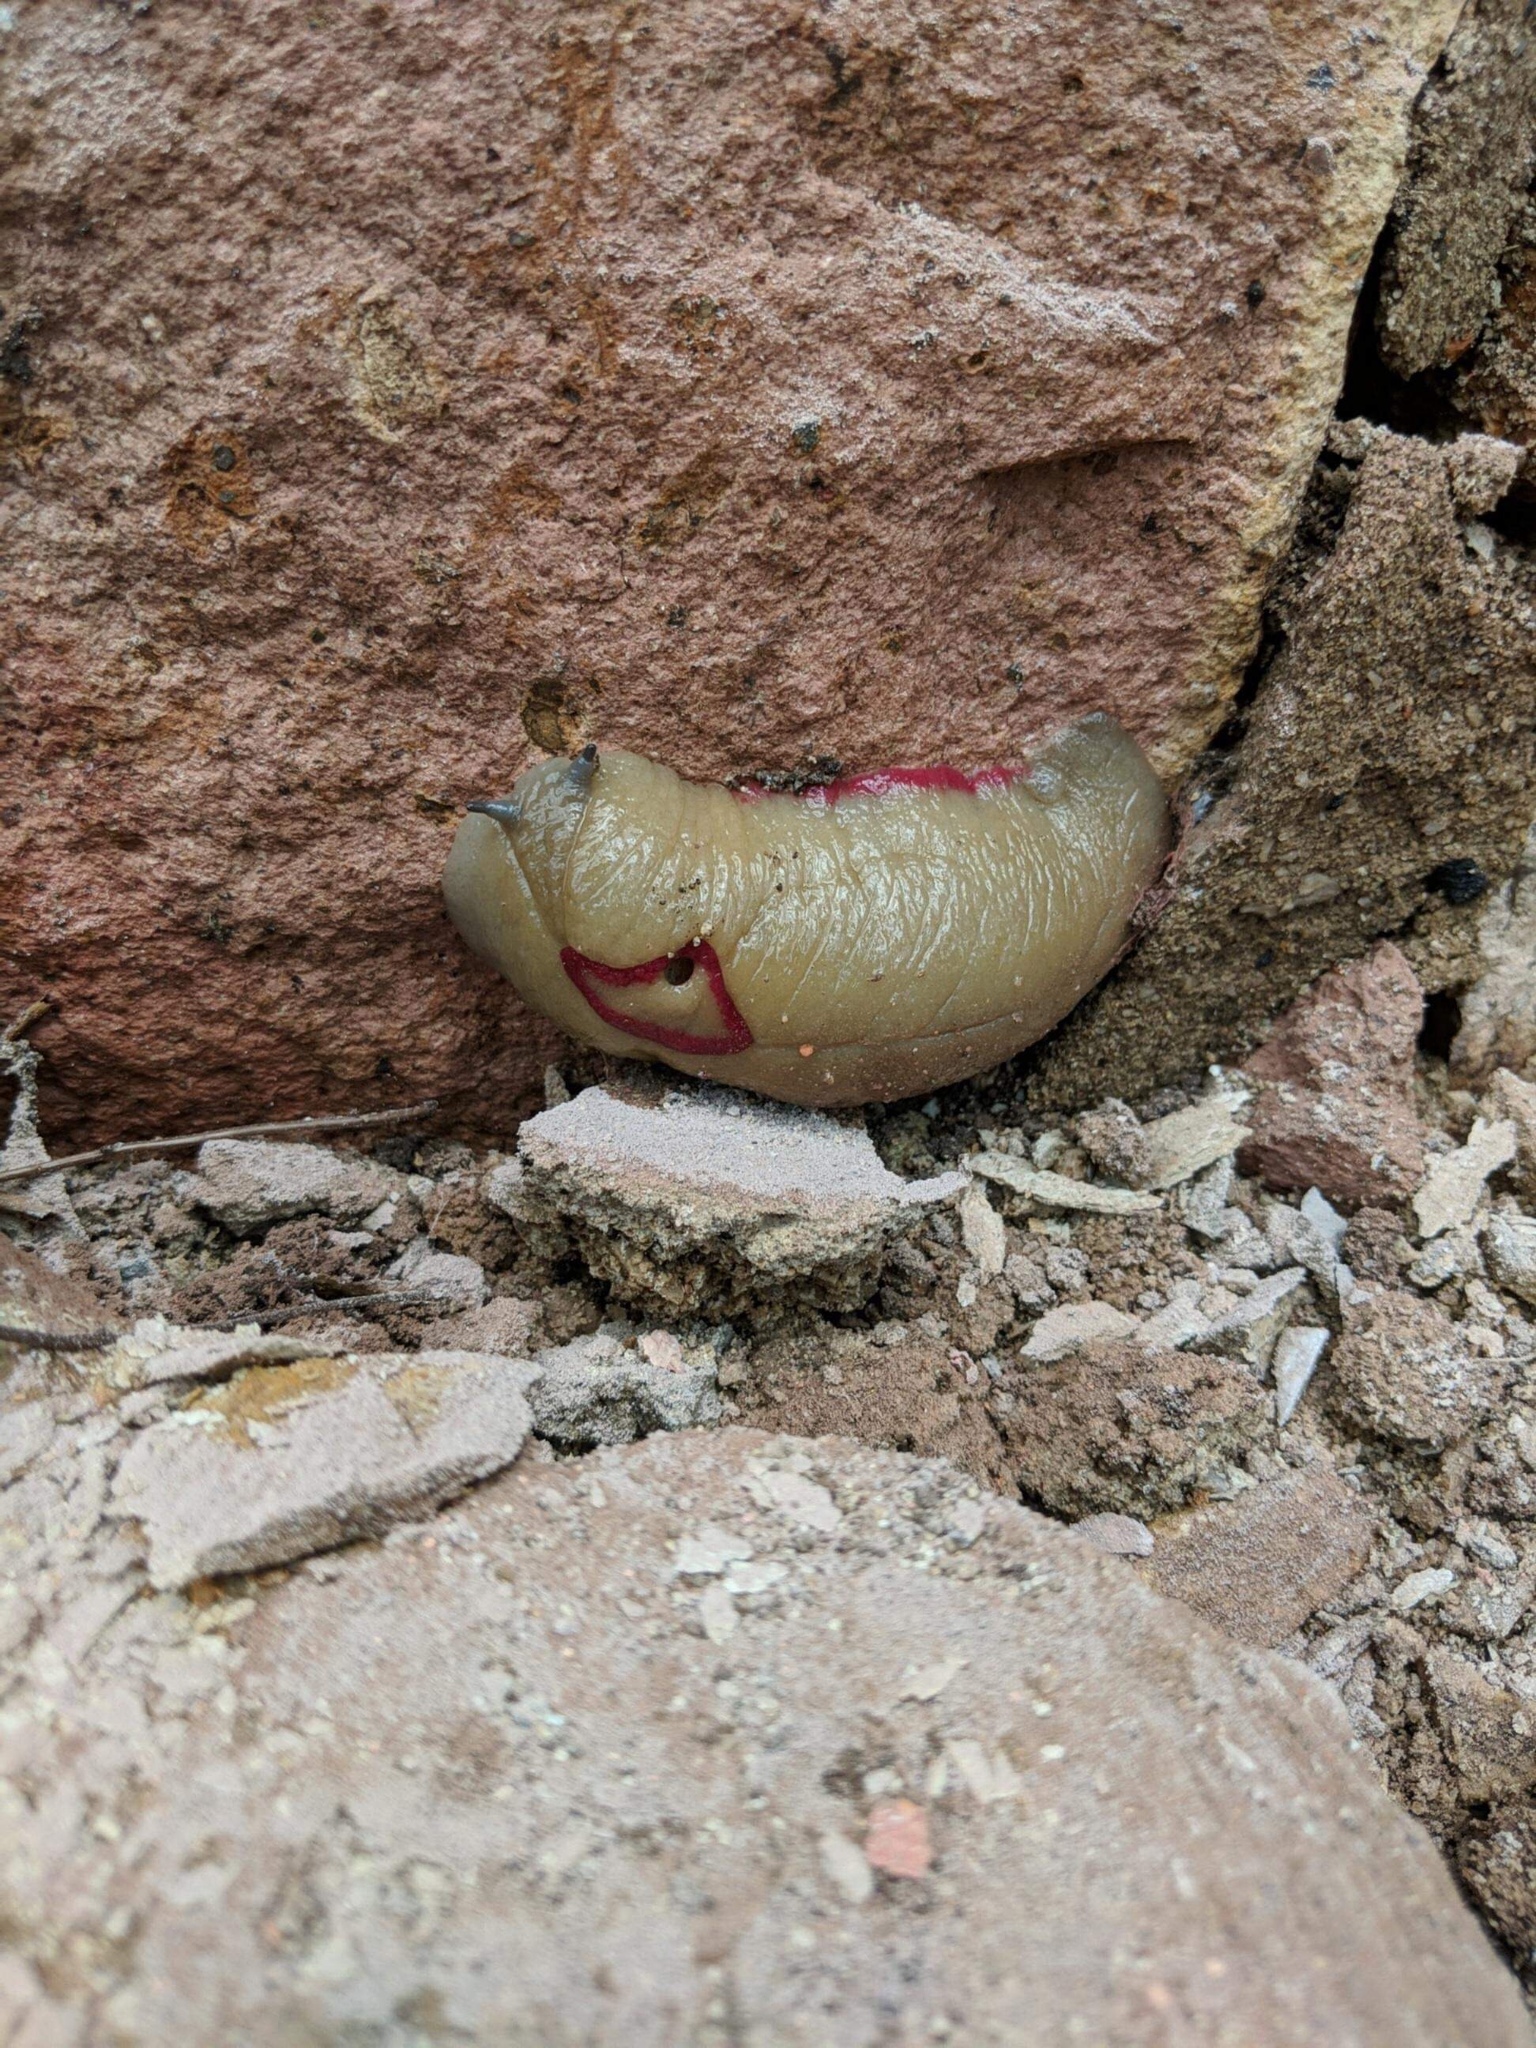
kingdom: Animalia
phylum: Mollusca
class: Gastropoda
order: Stylommatophora
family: Athoracophoridae
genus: Triboniophorus
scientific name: Triboniophorus graeffei
